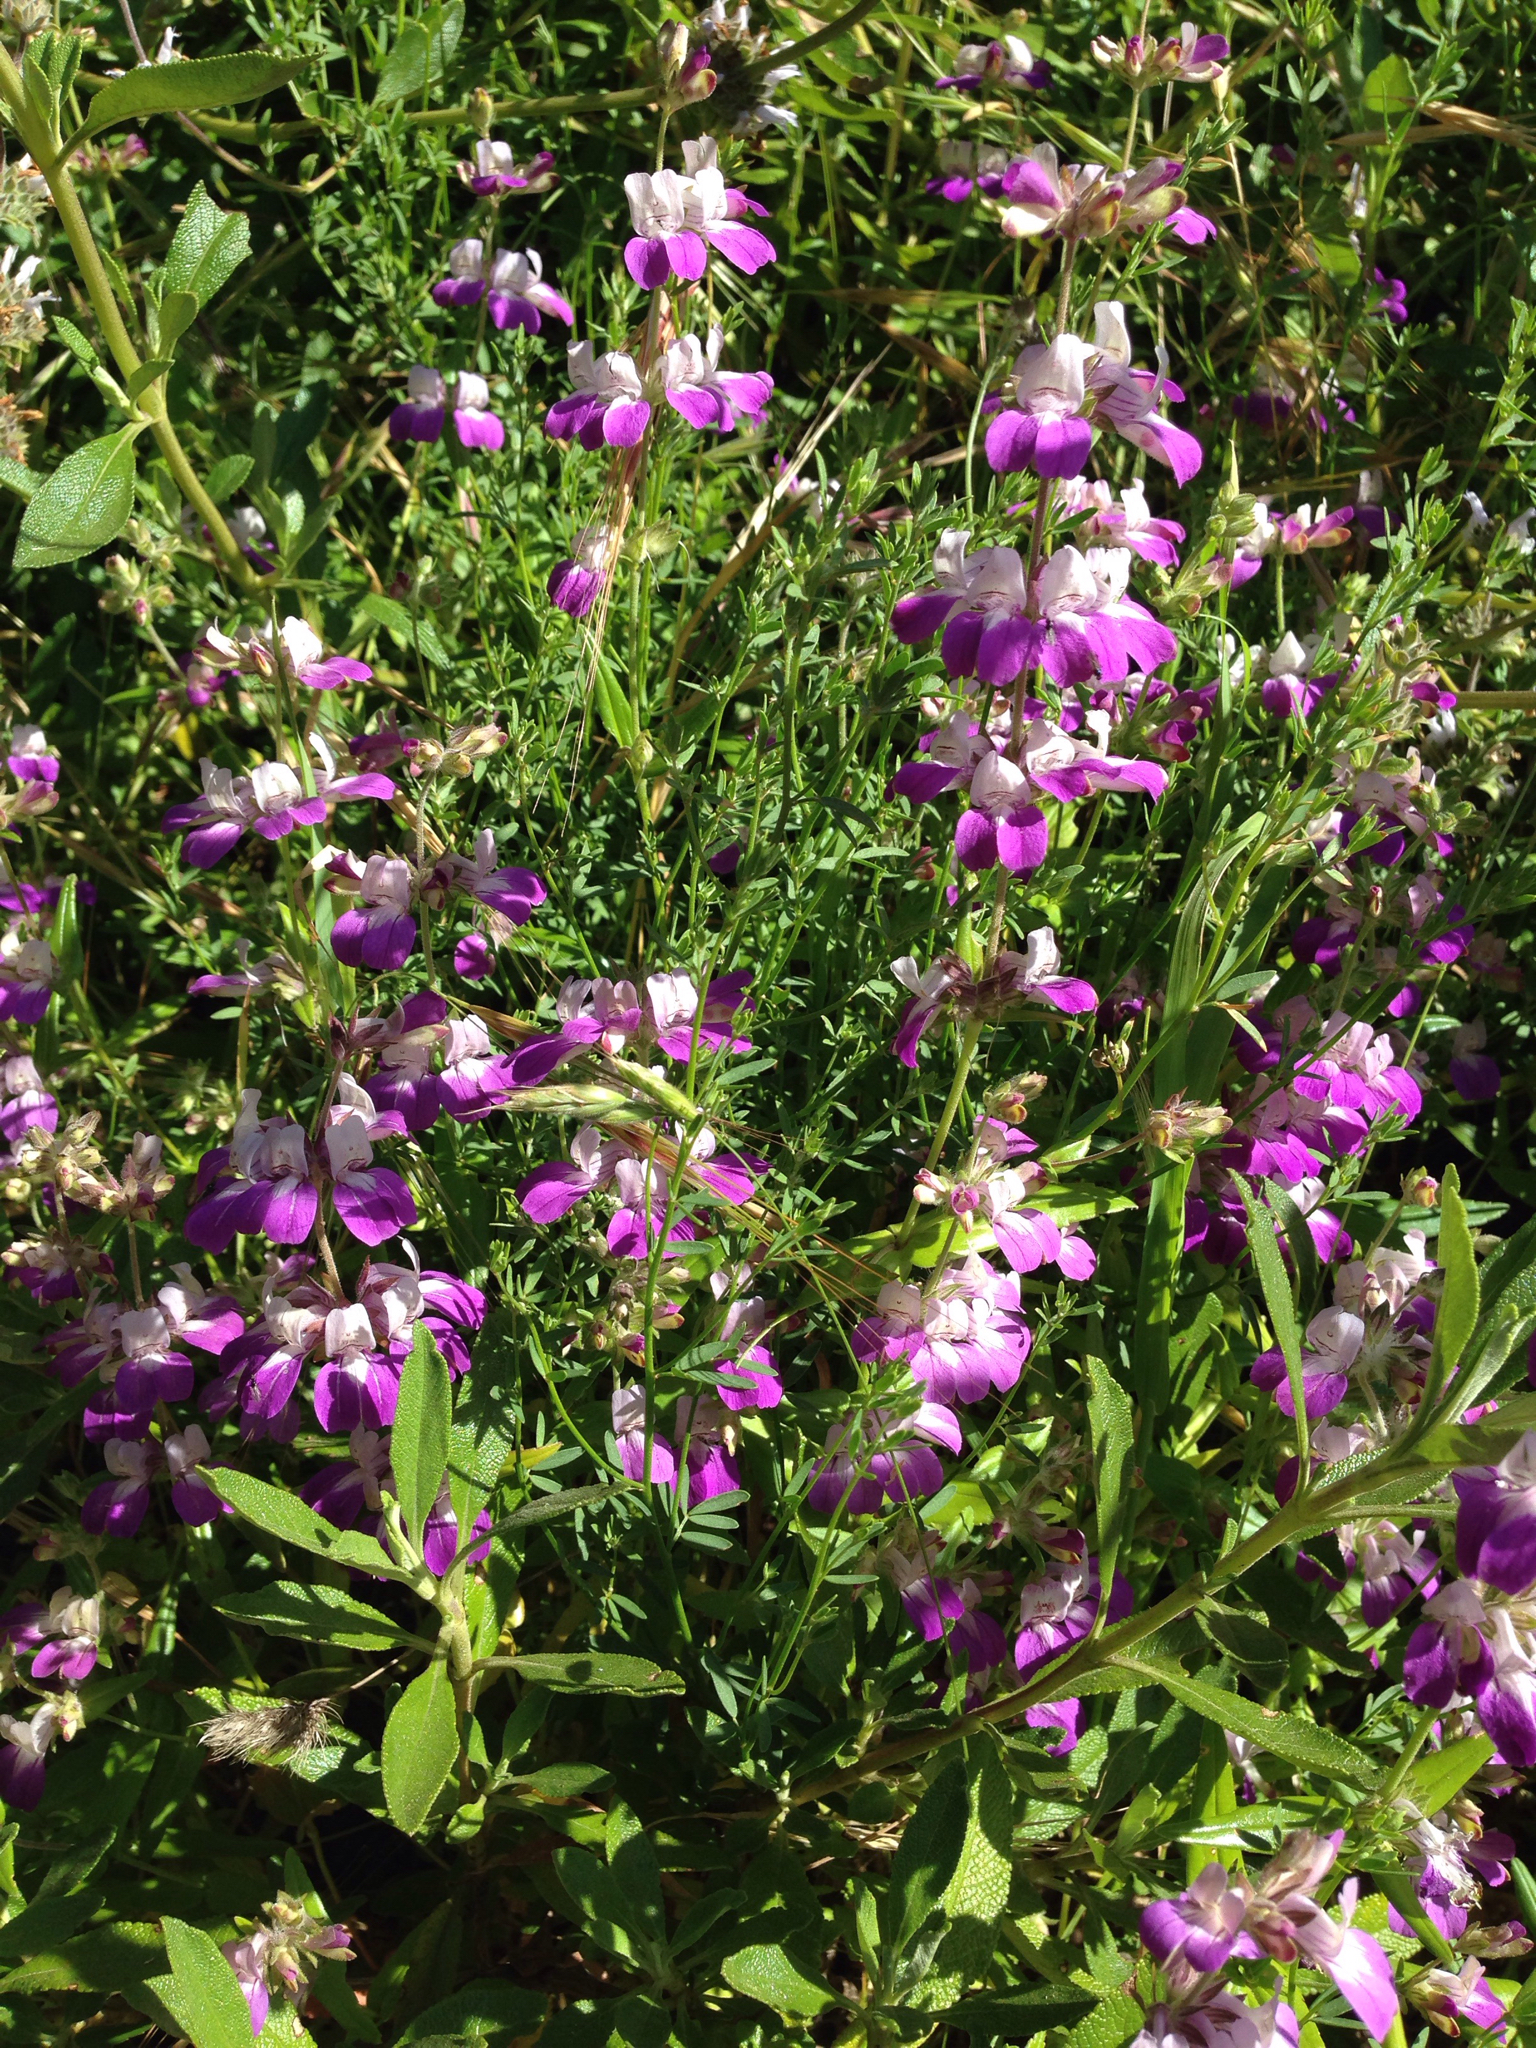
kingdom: Plantae
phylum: Tracheophyta
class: Magnoliopsida
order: Lamiales
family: Plantaginaceae
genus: Collinsia
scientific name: Collinsia heterophylla
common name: Chinese-houses
